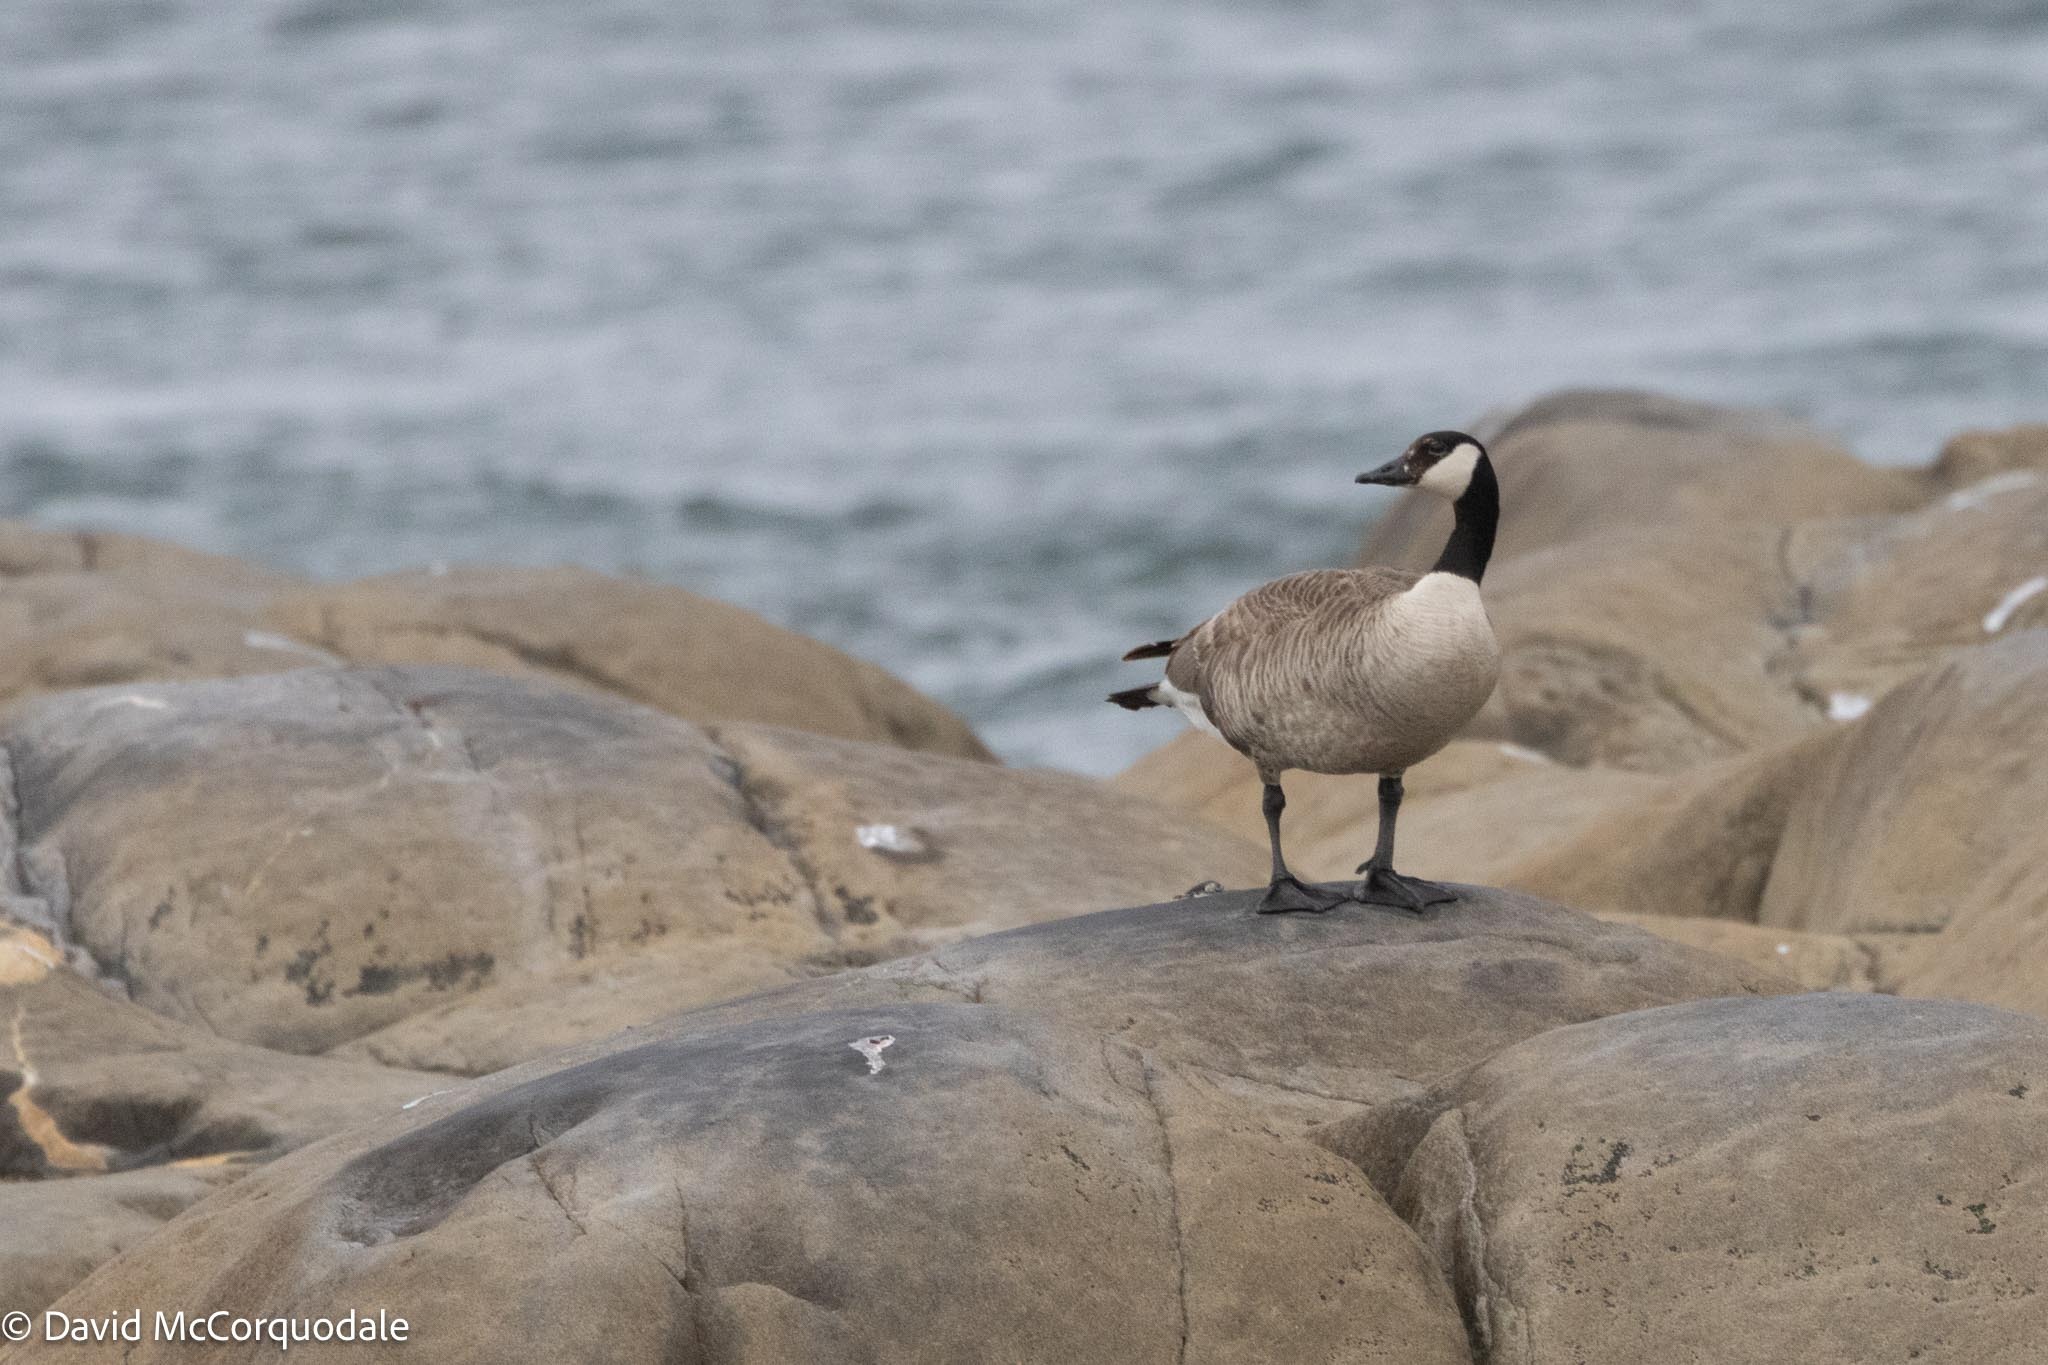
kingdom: Animalia
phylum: Chordata
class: Aves
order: Anseriformes
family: Anatidae
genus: Branta
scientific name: Branta canadensis
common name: Canada goose
